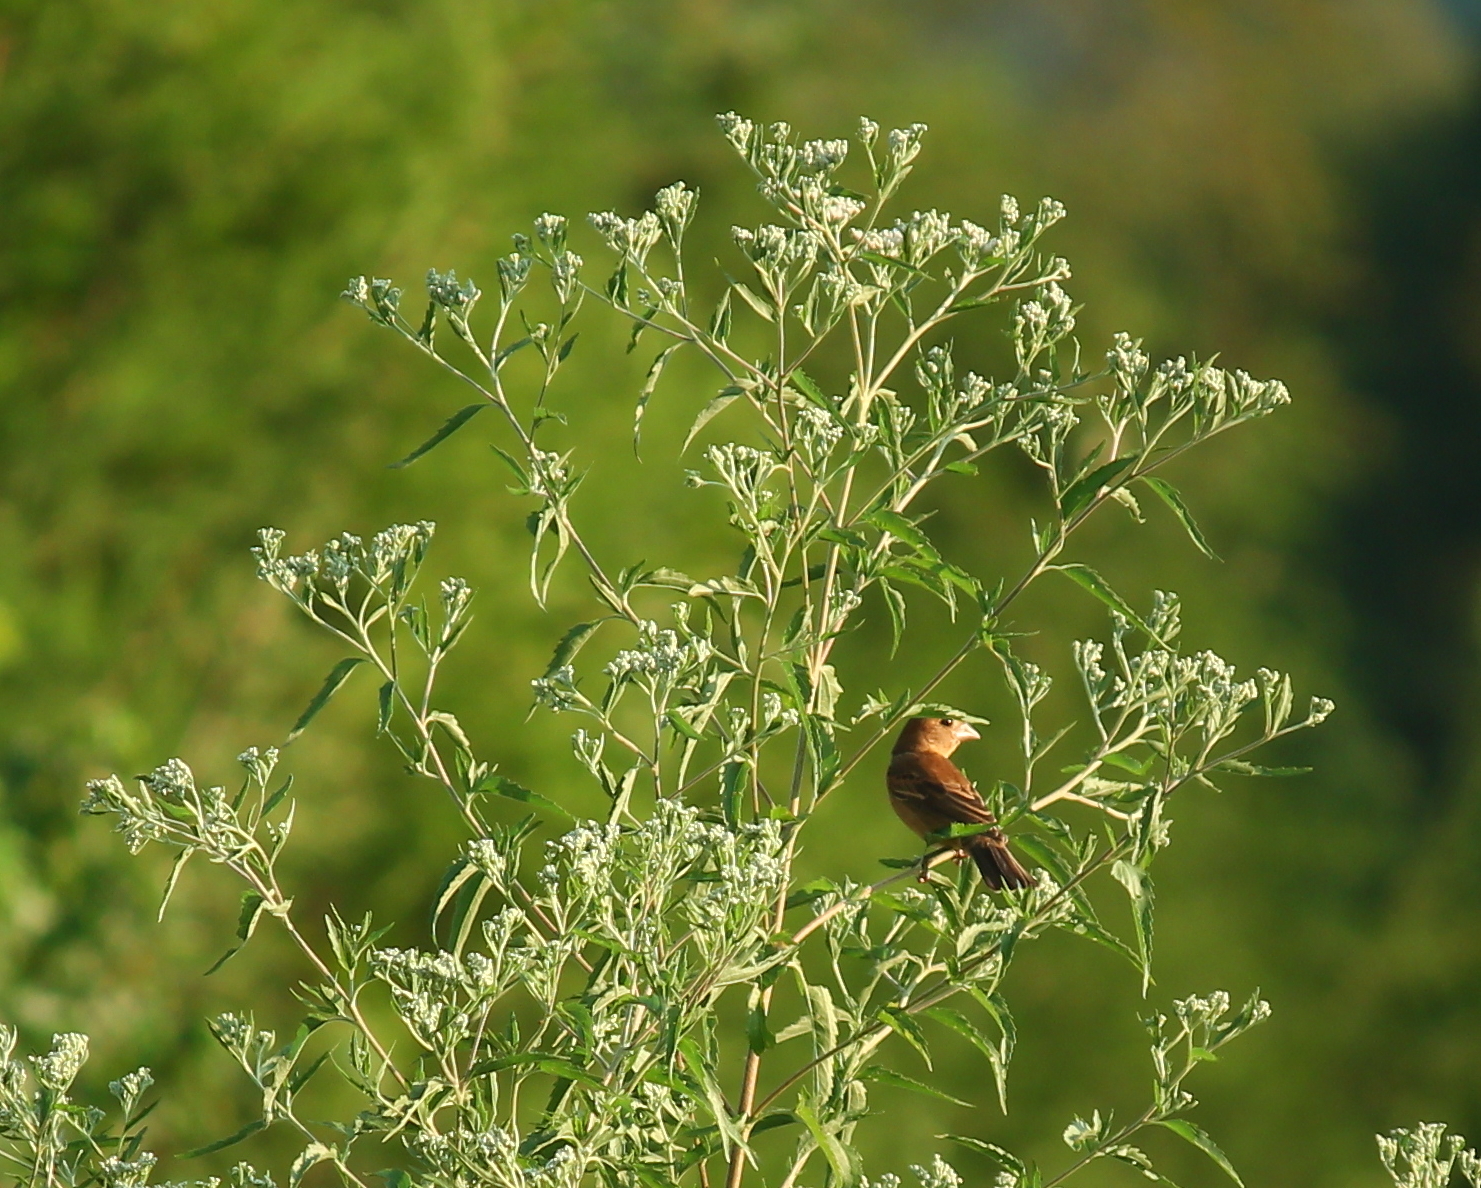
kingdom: Animalia
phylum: Chordata
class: Aves
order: Passeriformes
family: Cardinalidae
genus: Passerina
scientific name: Passerina caerulea
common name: Blue grosbeak
